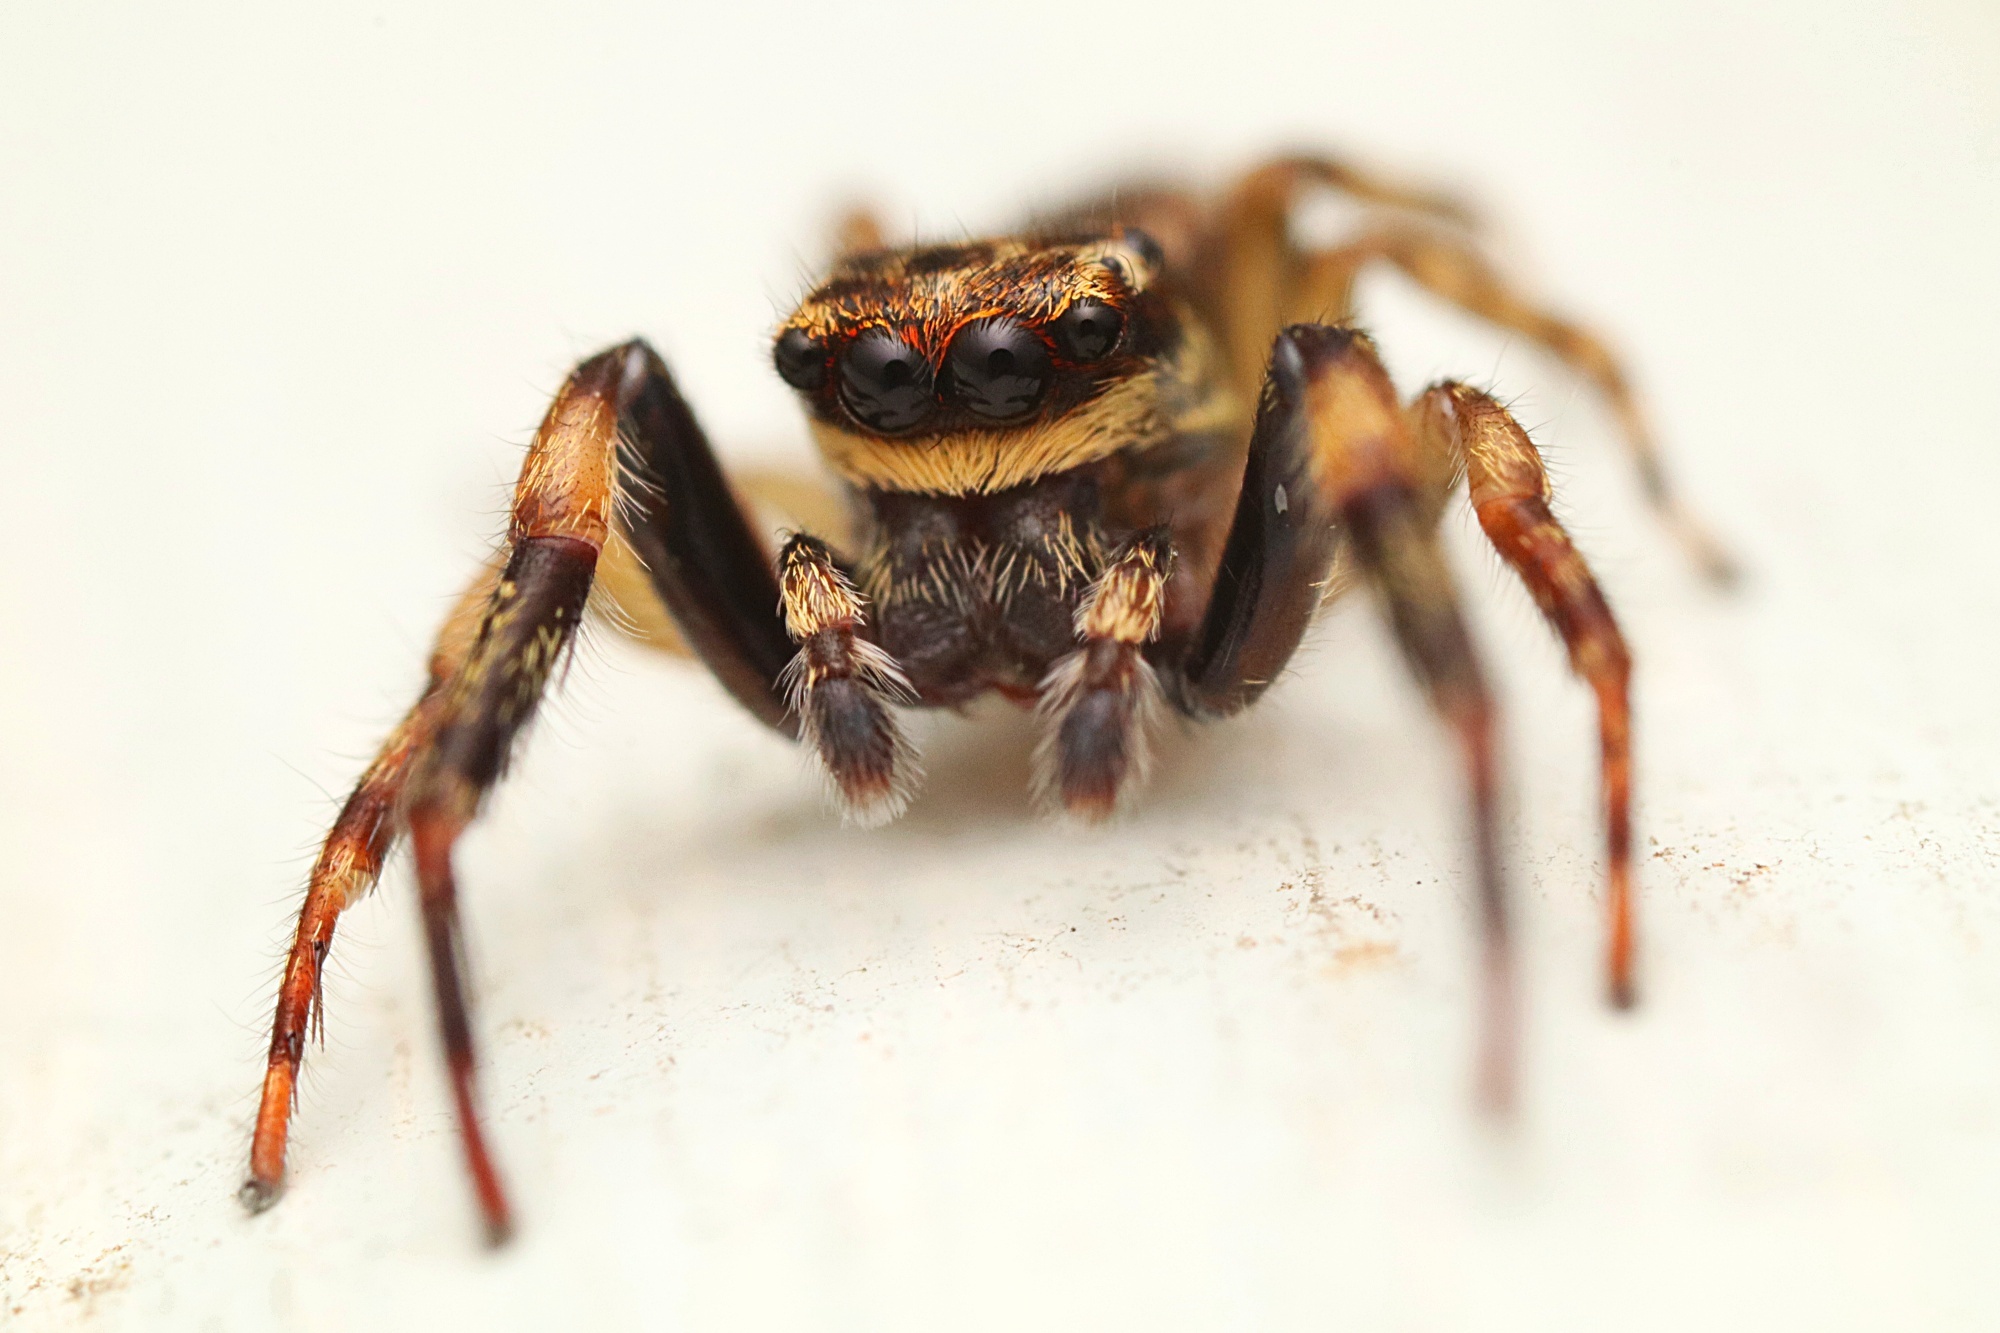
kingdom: Animalia
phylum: Arthropoda
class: Arachnida
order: Araneae
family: Salticidae
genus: Trite
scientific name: Trite auricoma
